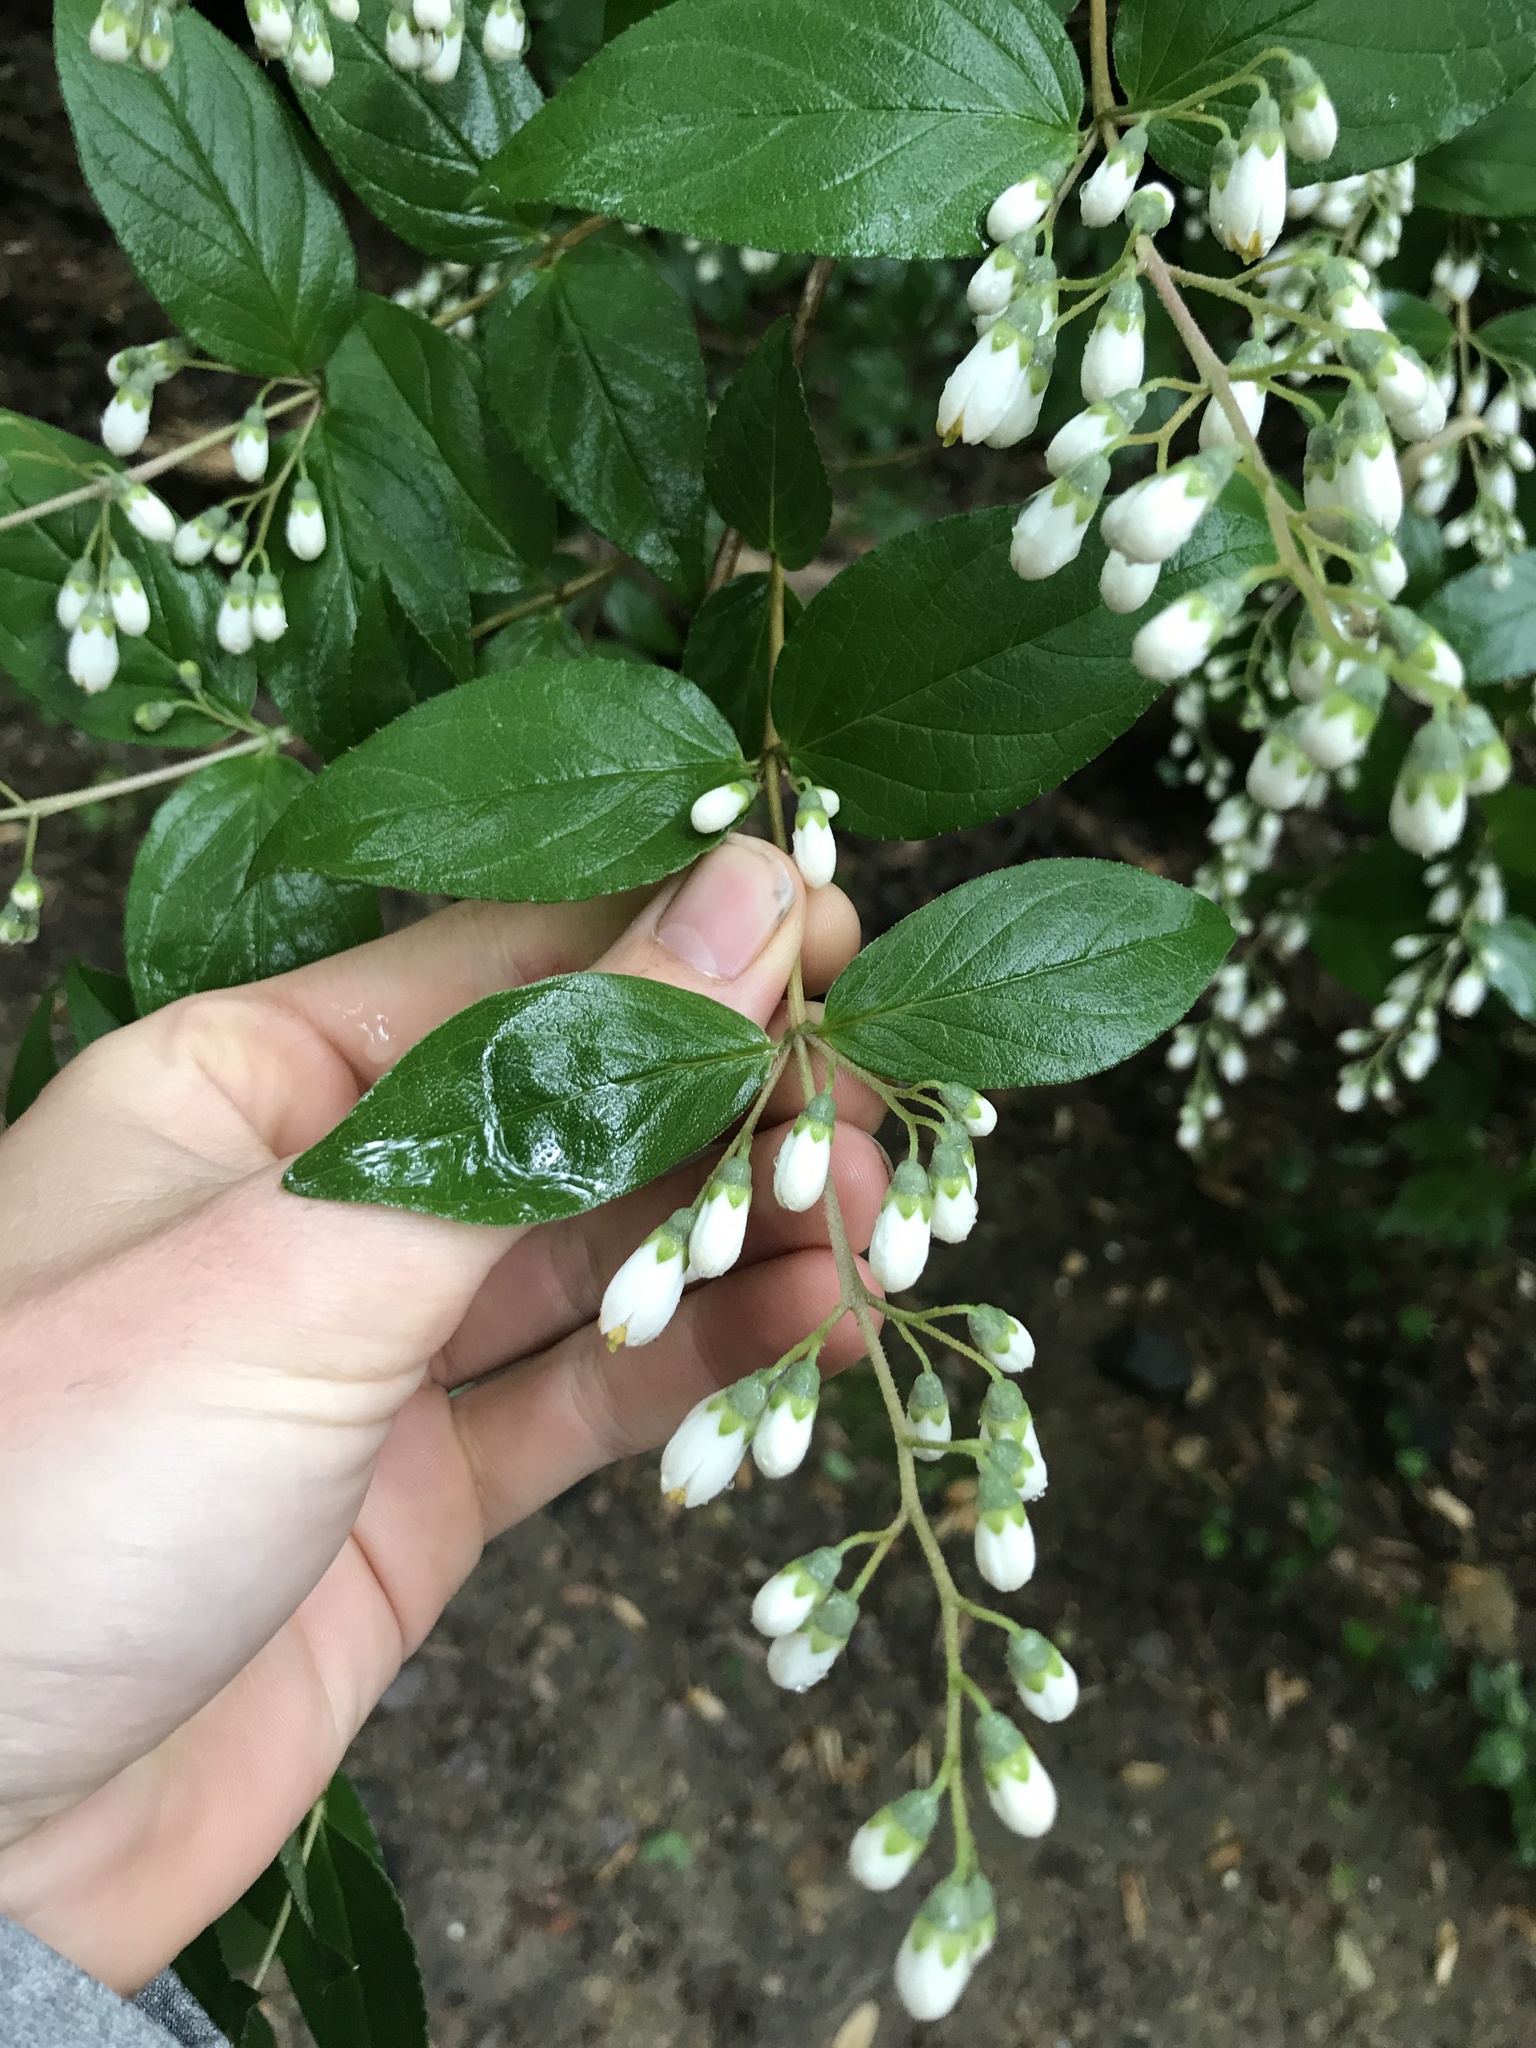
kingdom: Plantae
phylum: Tracheophyta
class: Magnoliopsida
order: Cornales
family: Hydrangeaceae
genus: Deutzia
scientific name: Deutzia scabra
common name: Deutzia
